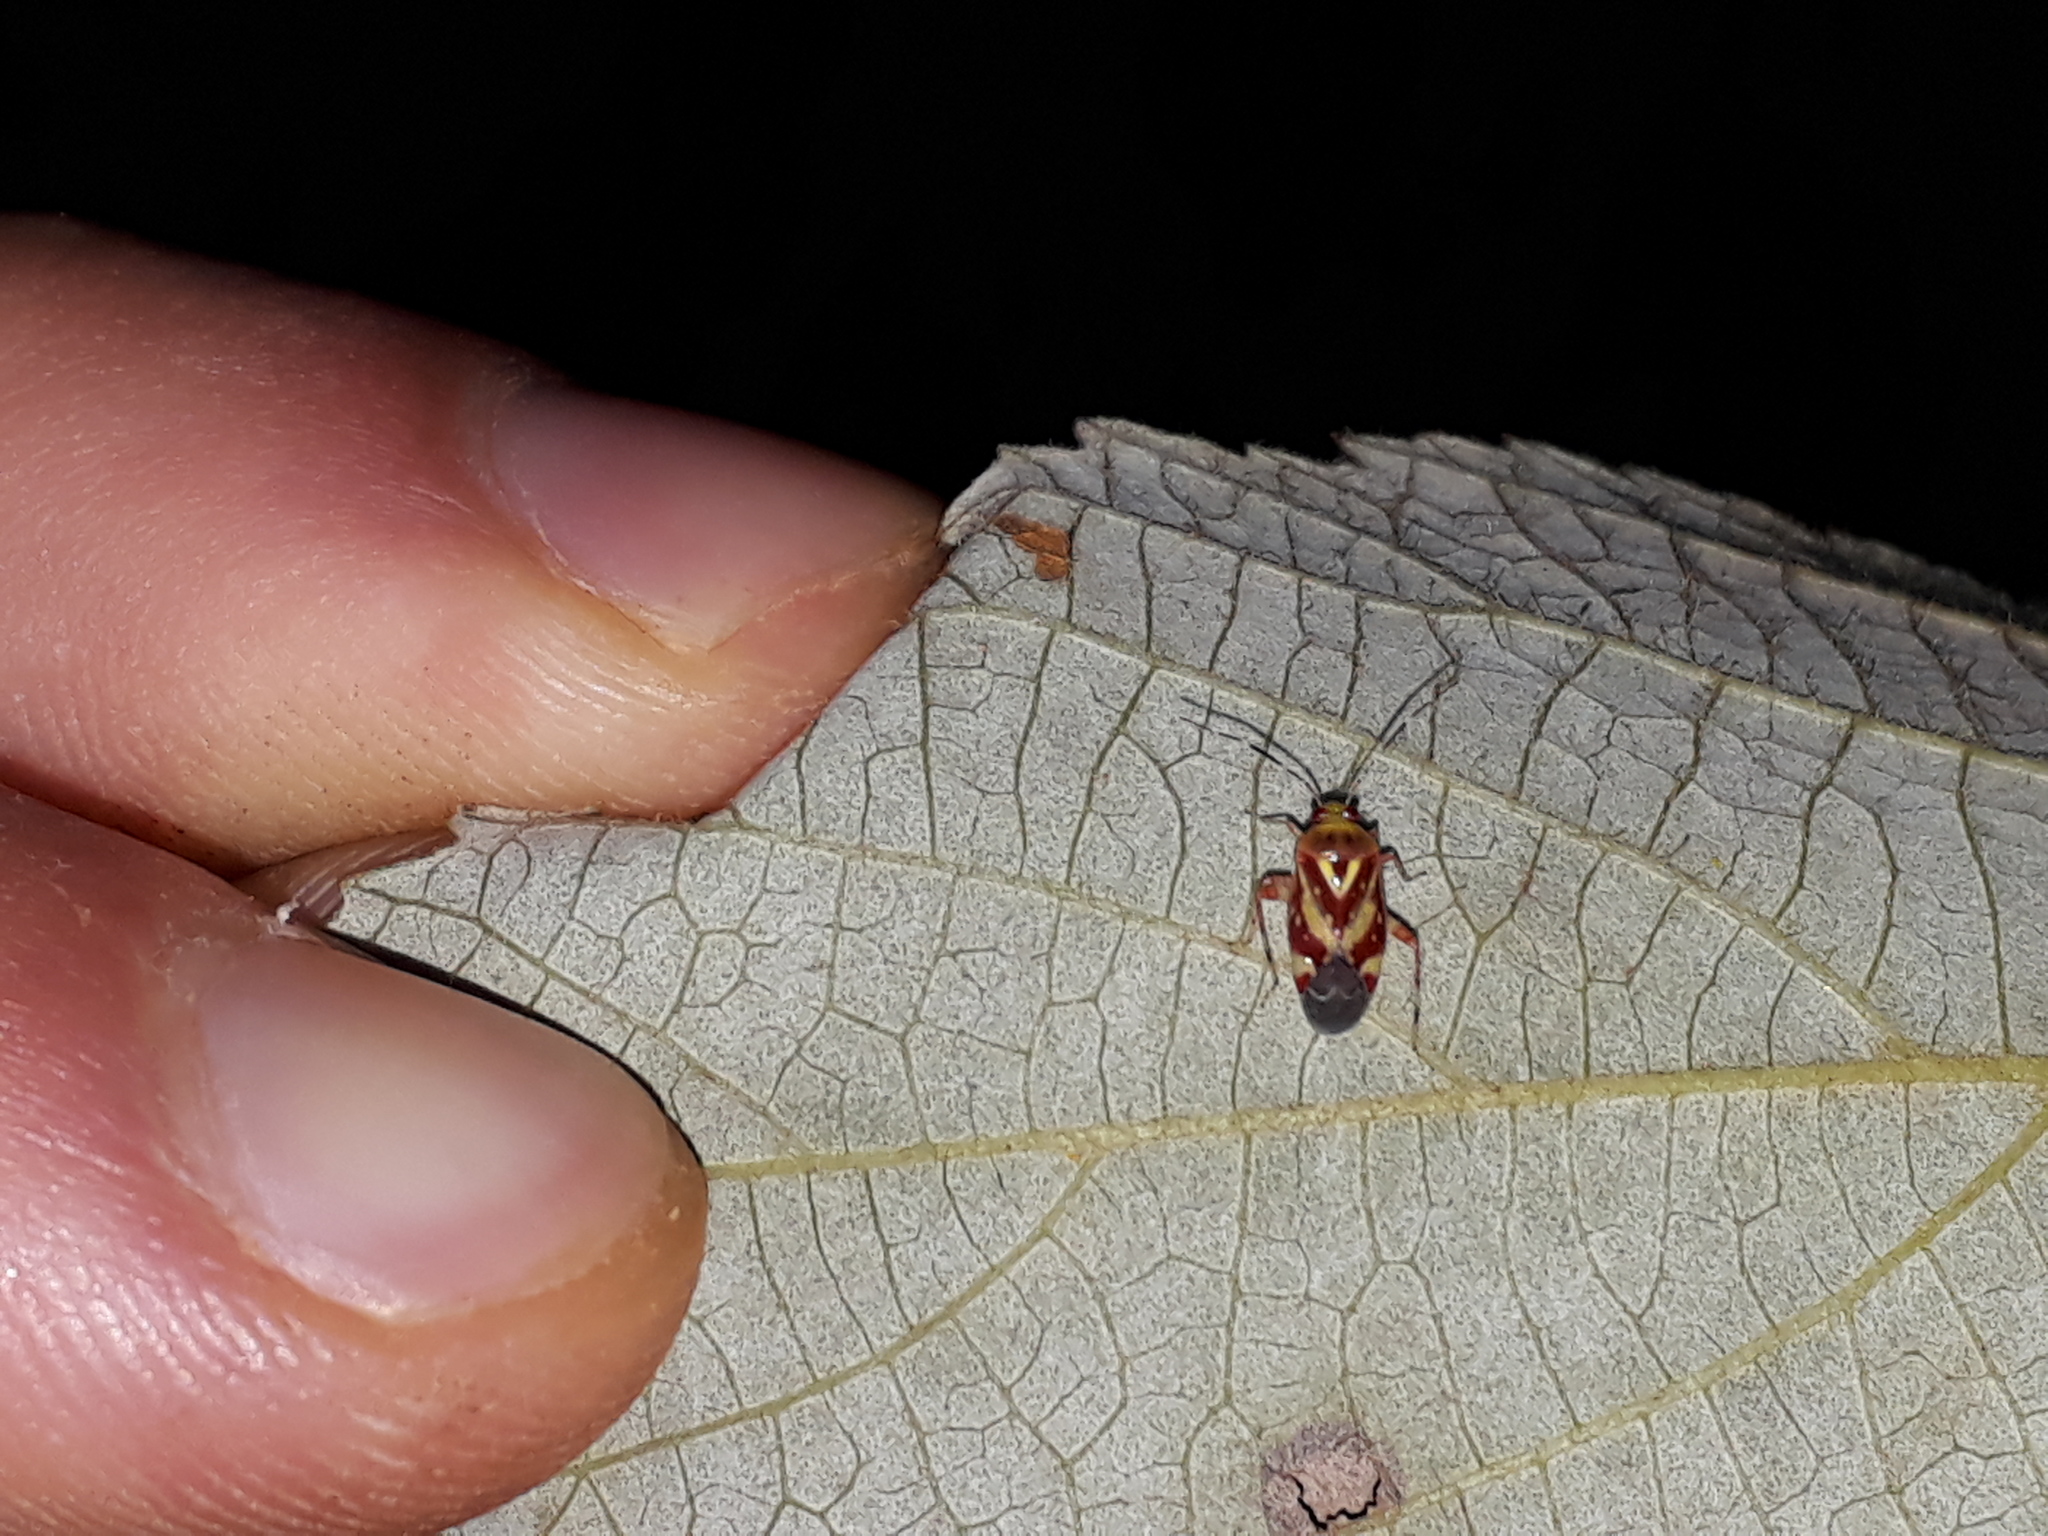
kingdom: Animalia
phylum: Arthropoda
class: Insecta
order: Hemiptera
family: Miridae
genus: Horciasoides
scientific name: Horciasoides nobilellus
